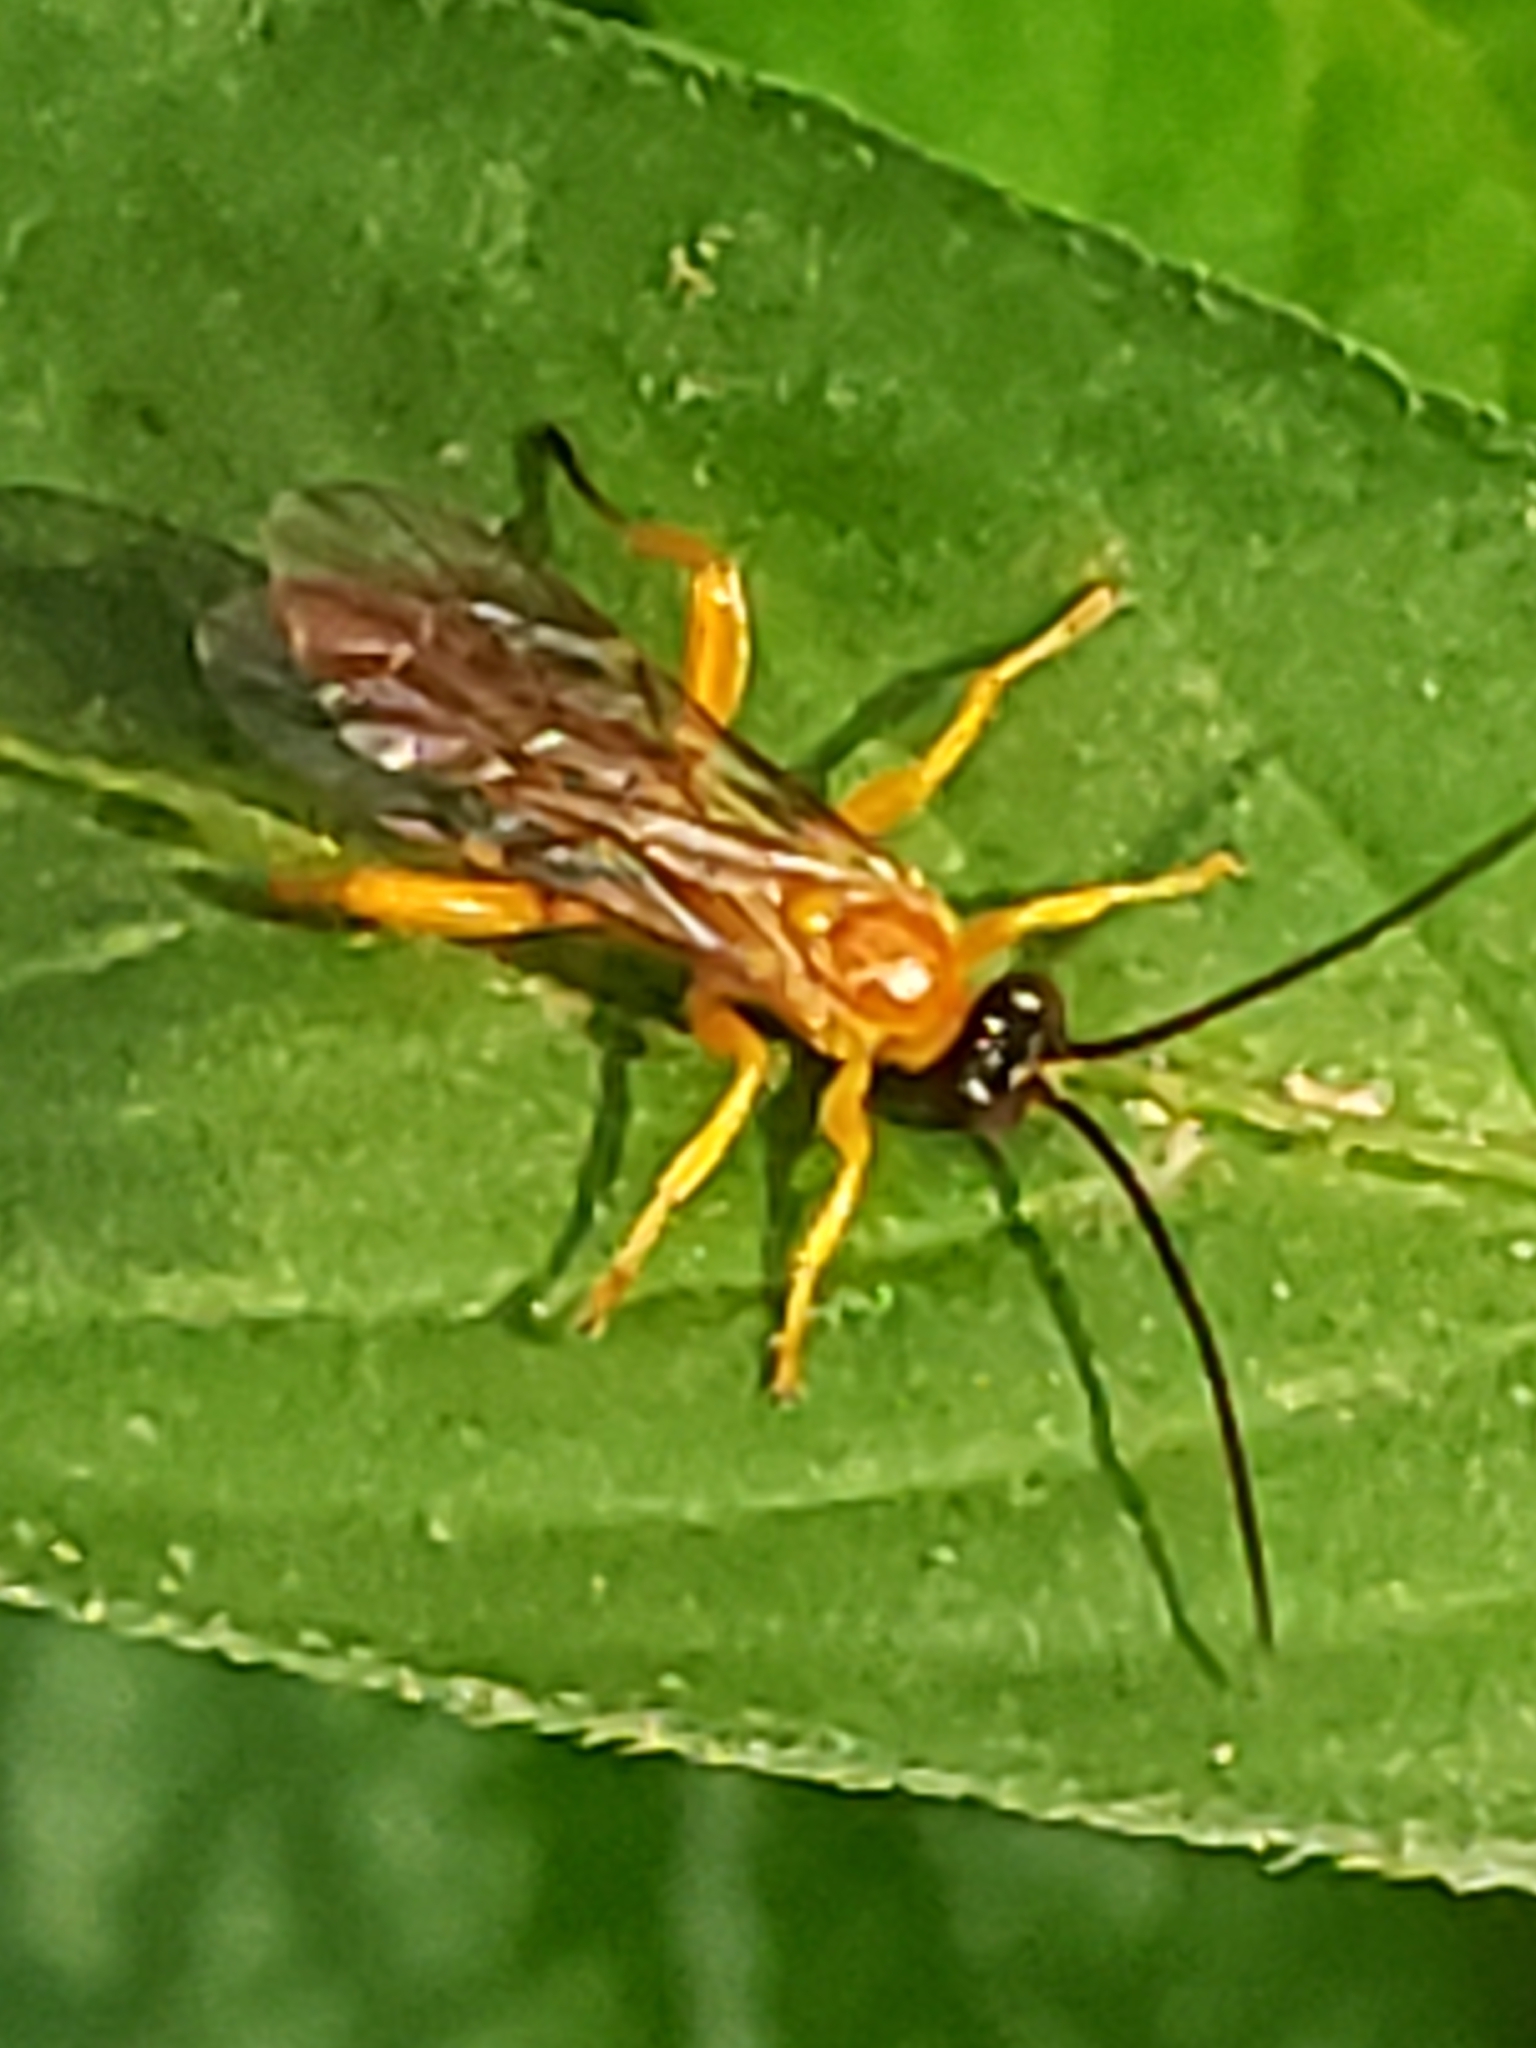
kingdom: Animalia
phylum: Arthropoda
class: Insecta
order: Hymenoptera
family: Ichneumonidae
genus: Theronia
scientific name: Theronia hilaris
